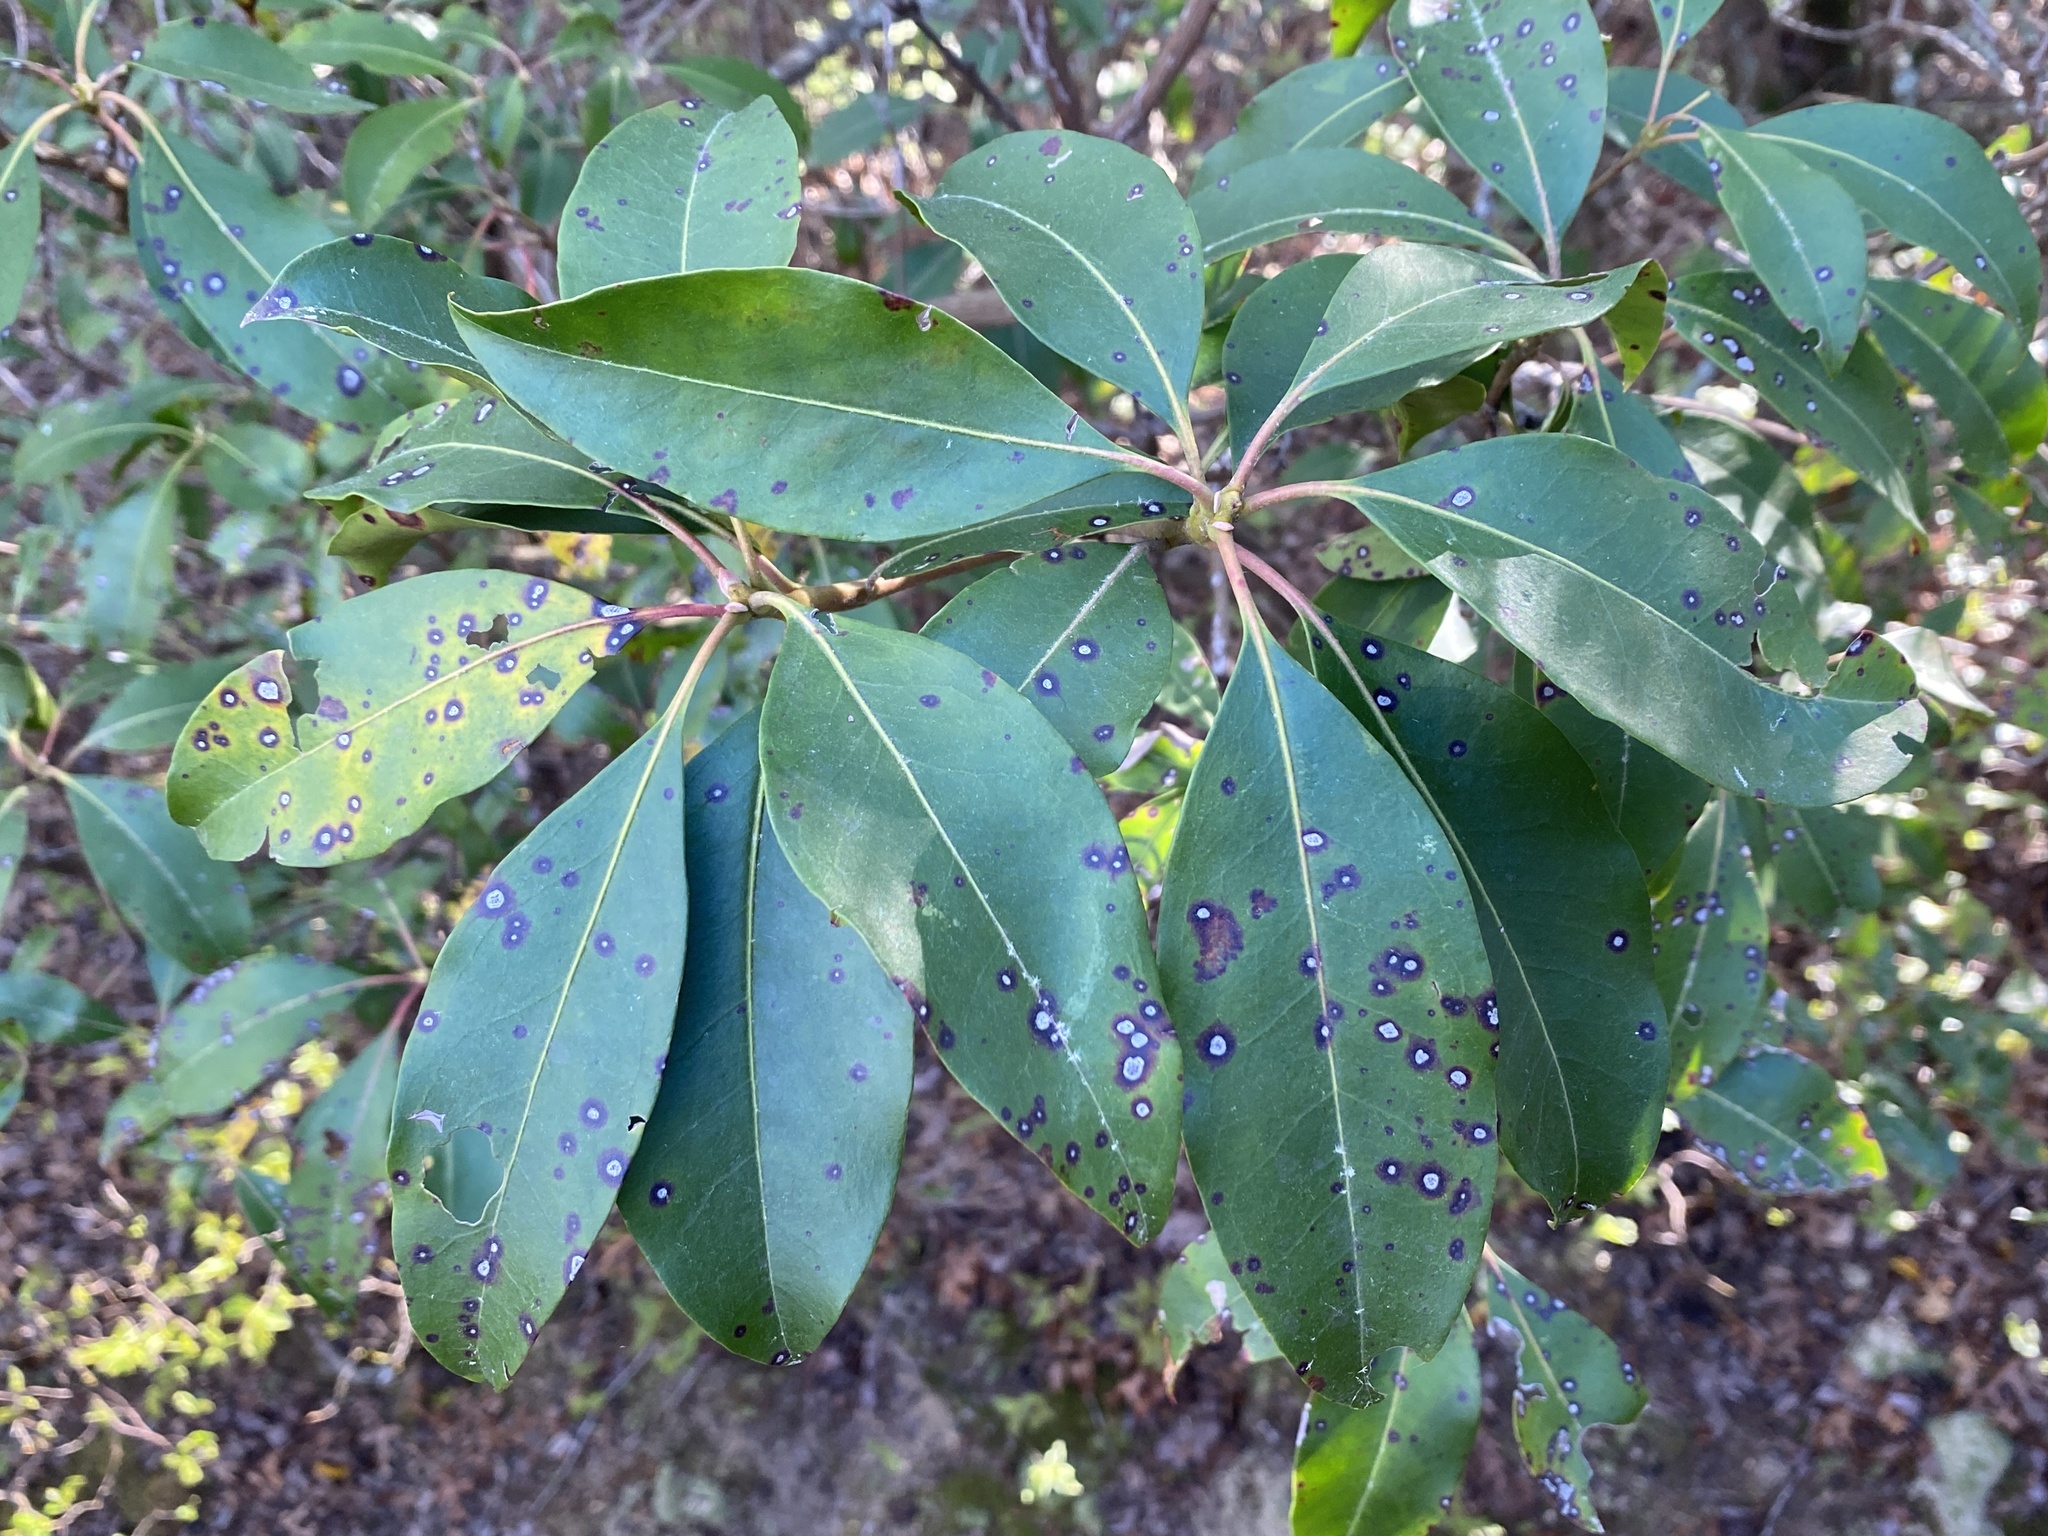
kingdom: Plantae
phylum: Tracheophyta
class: Magnoliopsida
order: Ericales
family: Ericaceae
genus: Kalmia
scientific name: Kalmia latifolia
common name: Mountain-laurel
